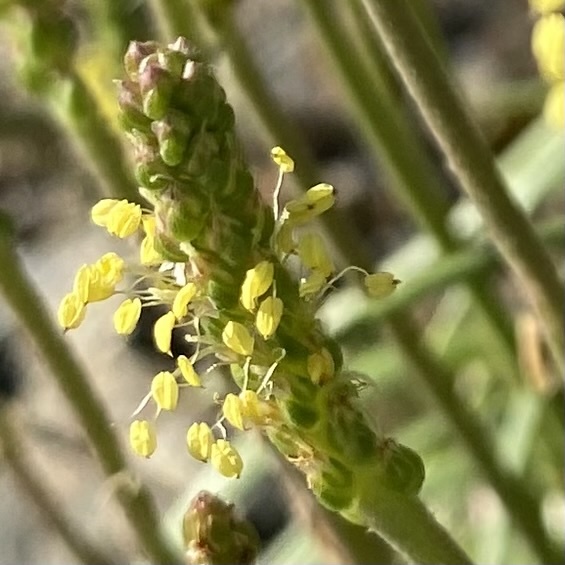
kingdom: Plantae
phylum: Tracheophyta
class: Magnoliopsida
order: Lamiales
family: Plantaginaceae
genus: Plantago
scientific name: Plantago maritima
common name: Sea plantain
